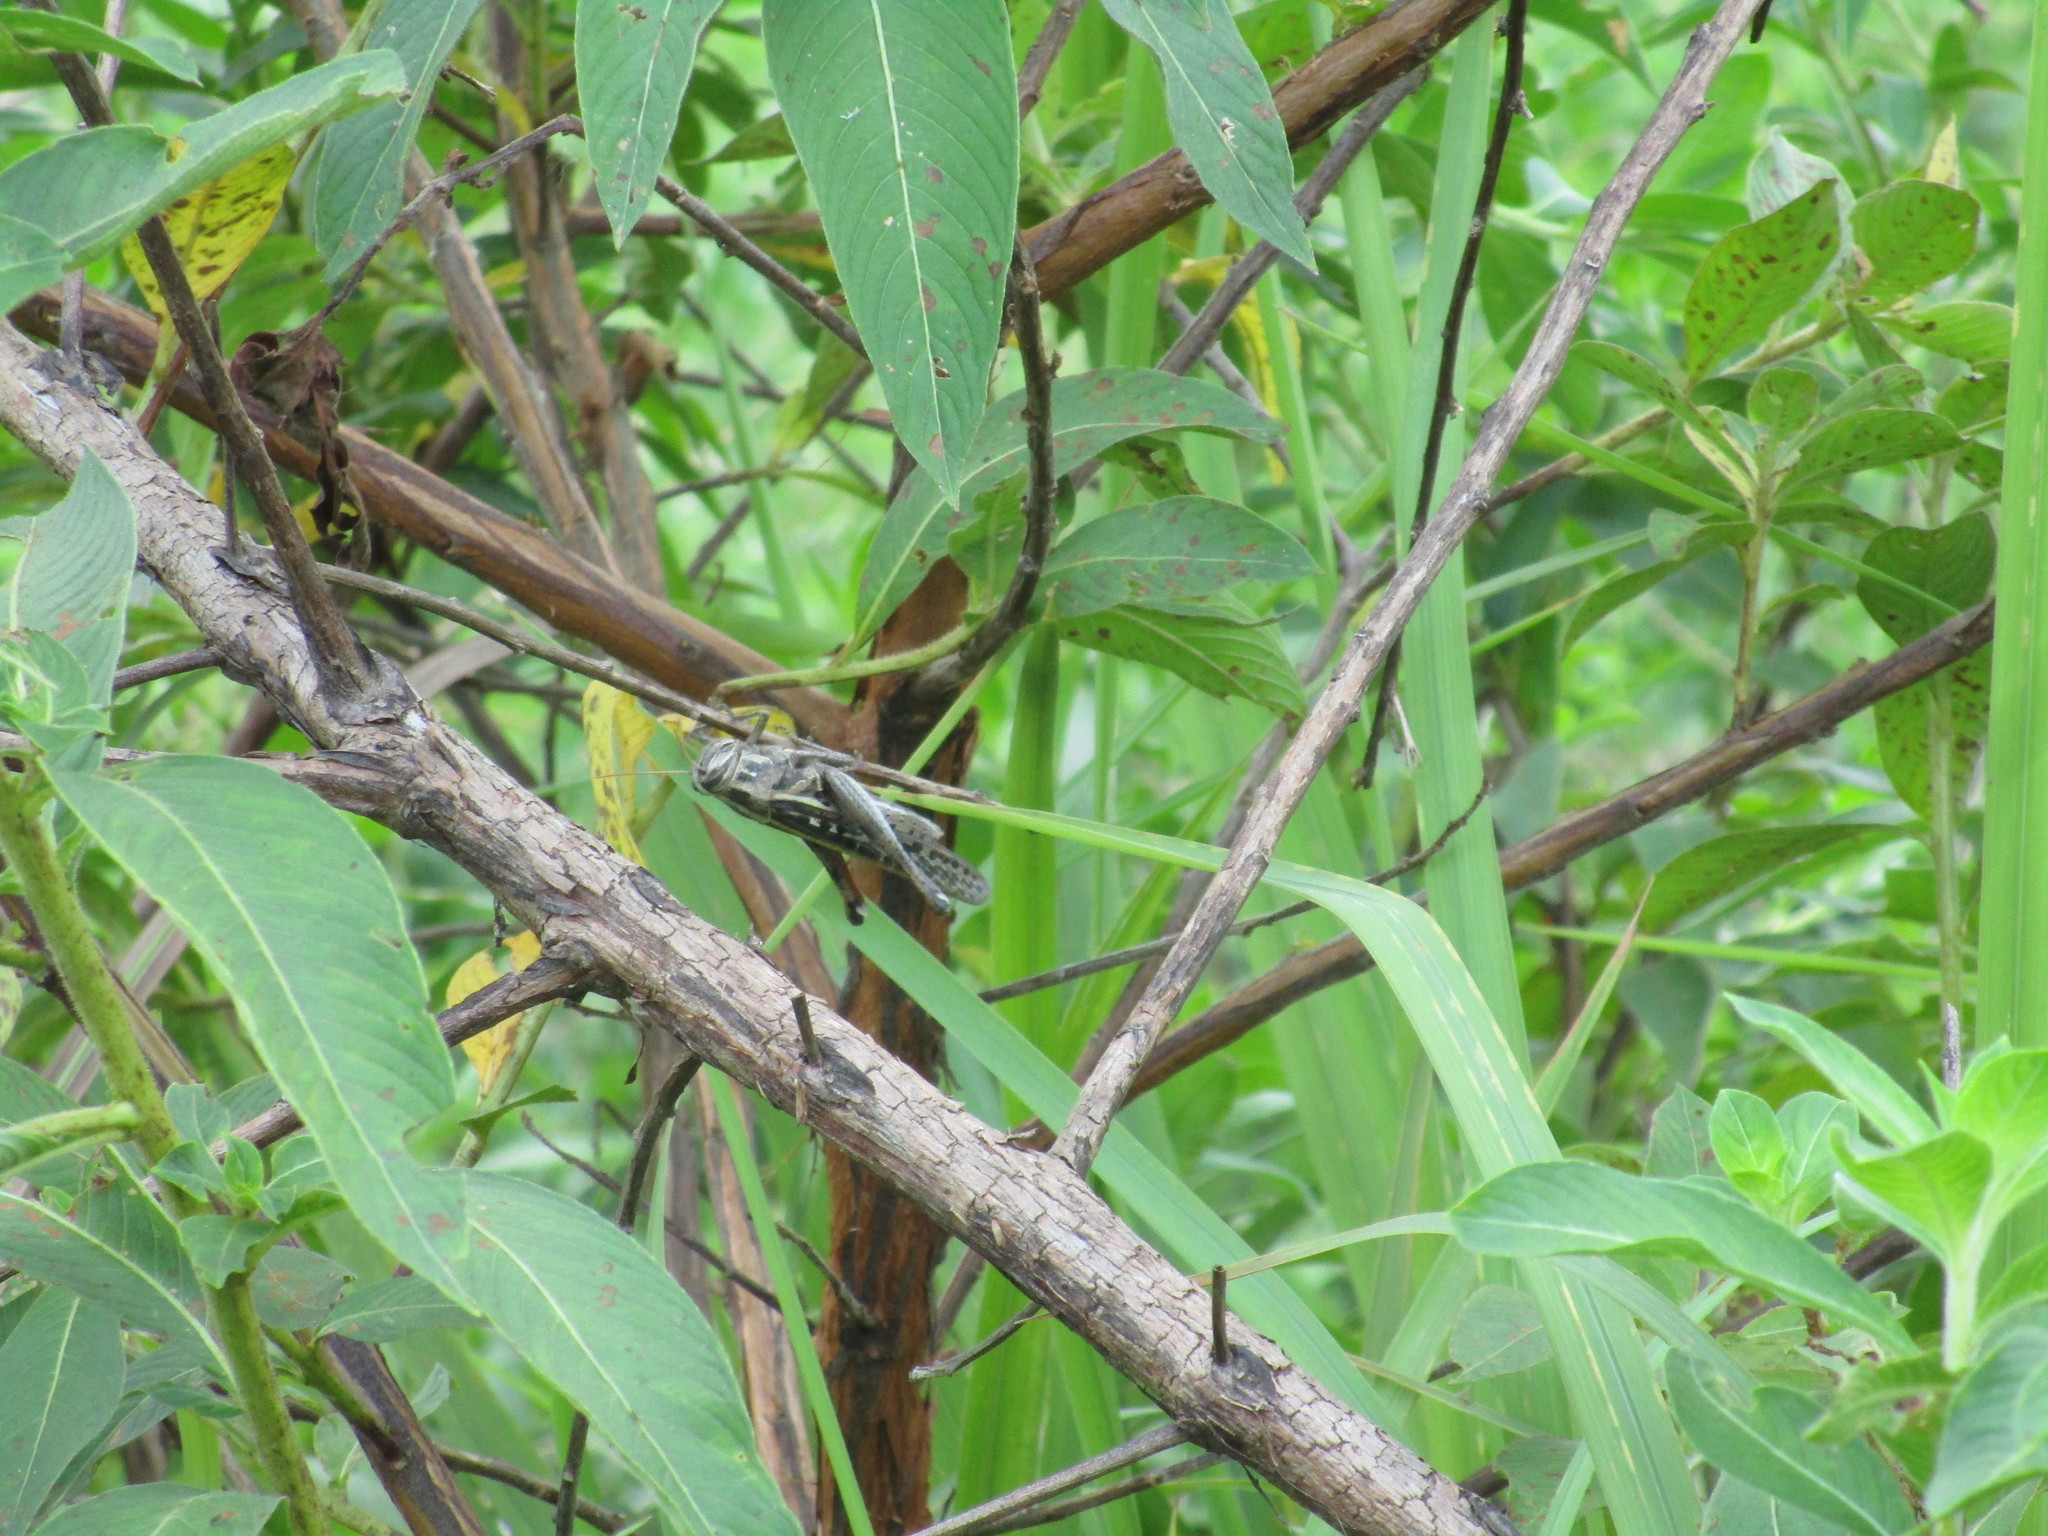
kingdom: Animalia
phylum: Arthropoda
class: Insecta
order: Orthoptera
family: Acrididae
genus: Schistocerca
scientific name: Schistocerca americana
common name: American bird locust
